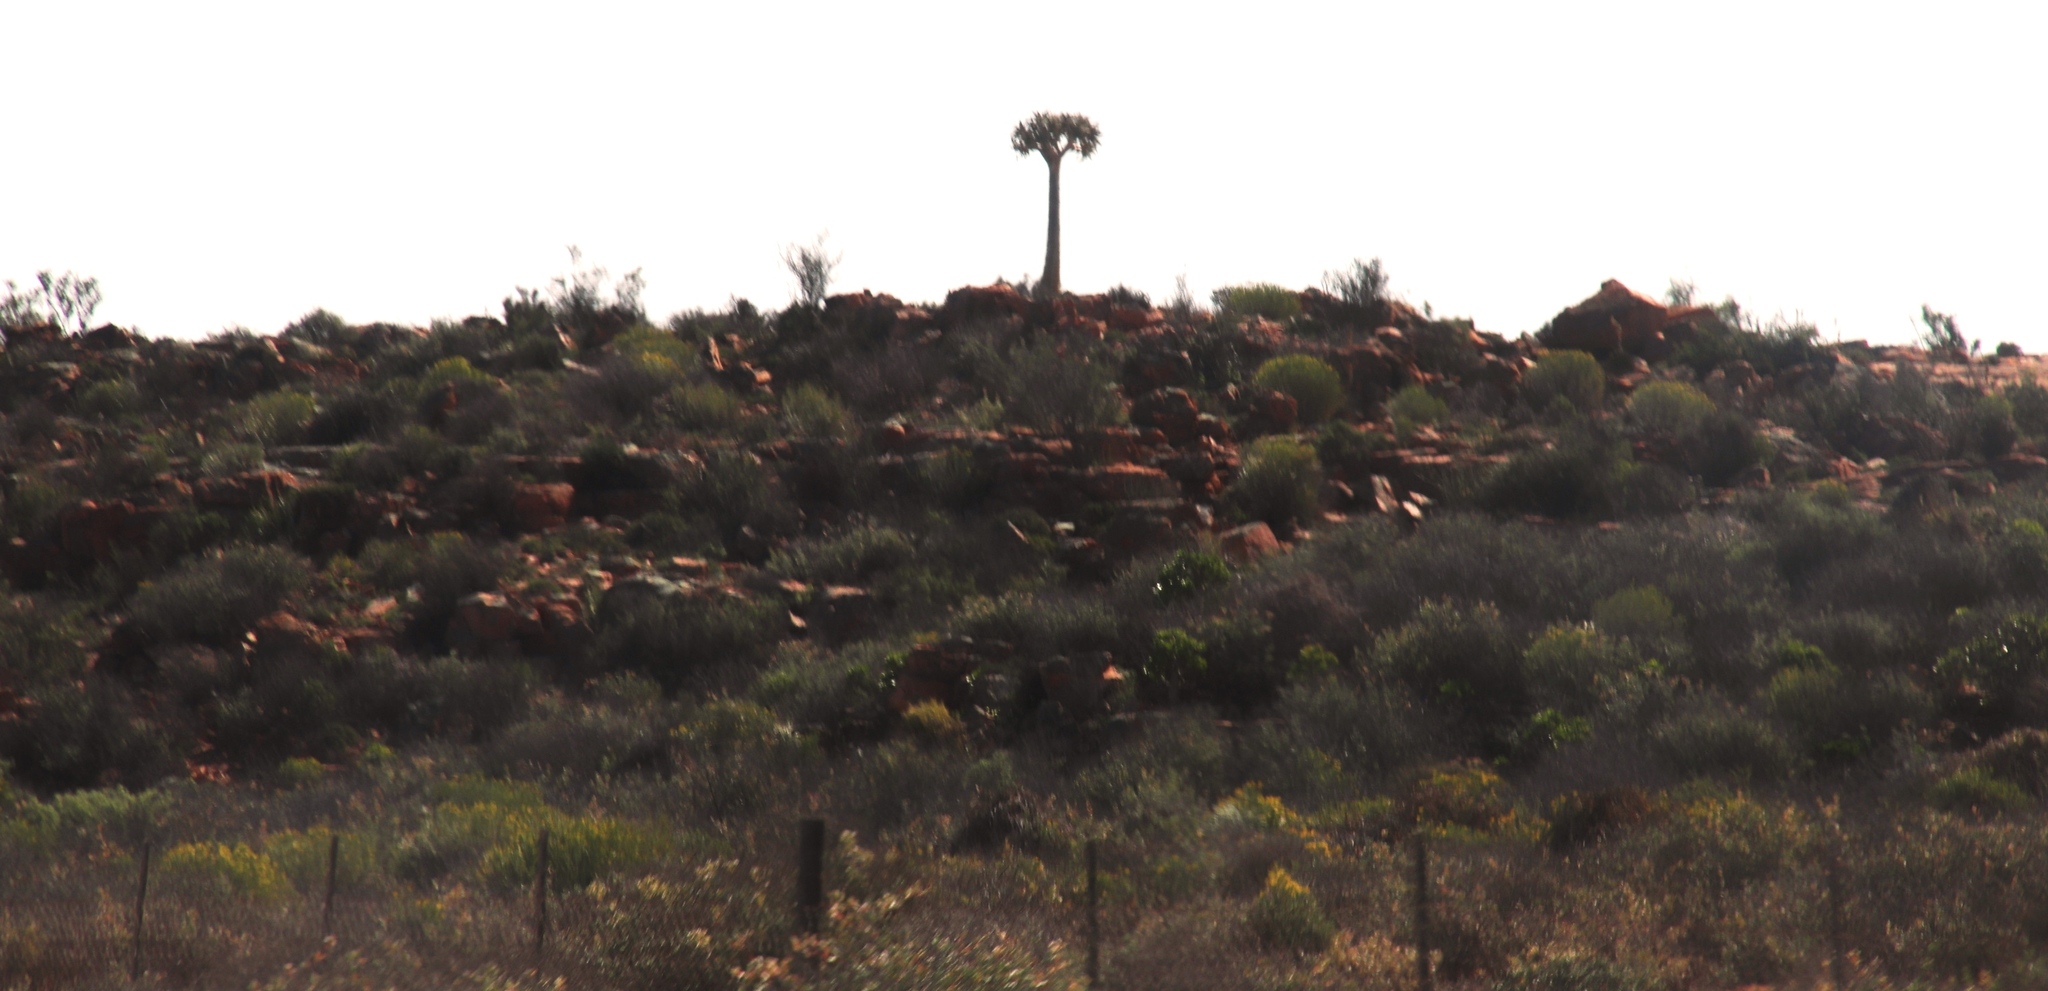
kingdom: Plantae
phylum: Tracheophyta
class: Liliopsida
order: Asparagales
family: Asphodelaceae
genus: Aloidendron
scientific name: Aloidendron dichotomum
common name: Quiver tree
